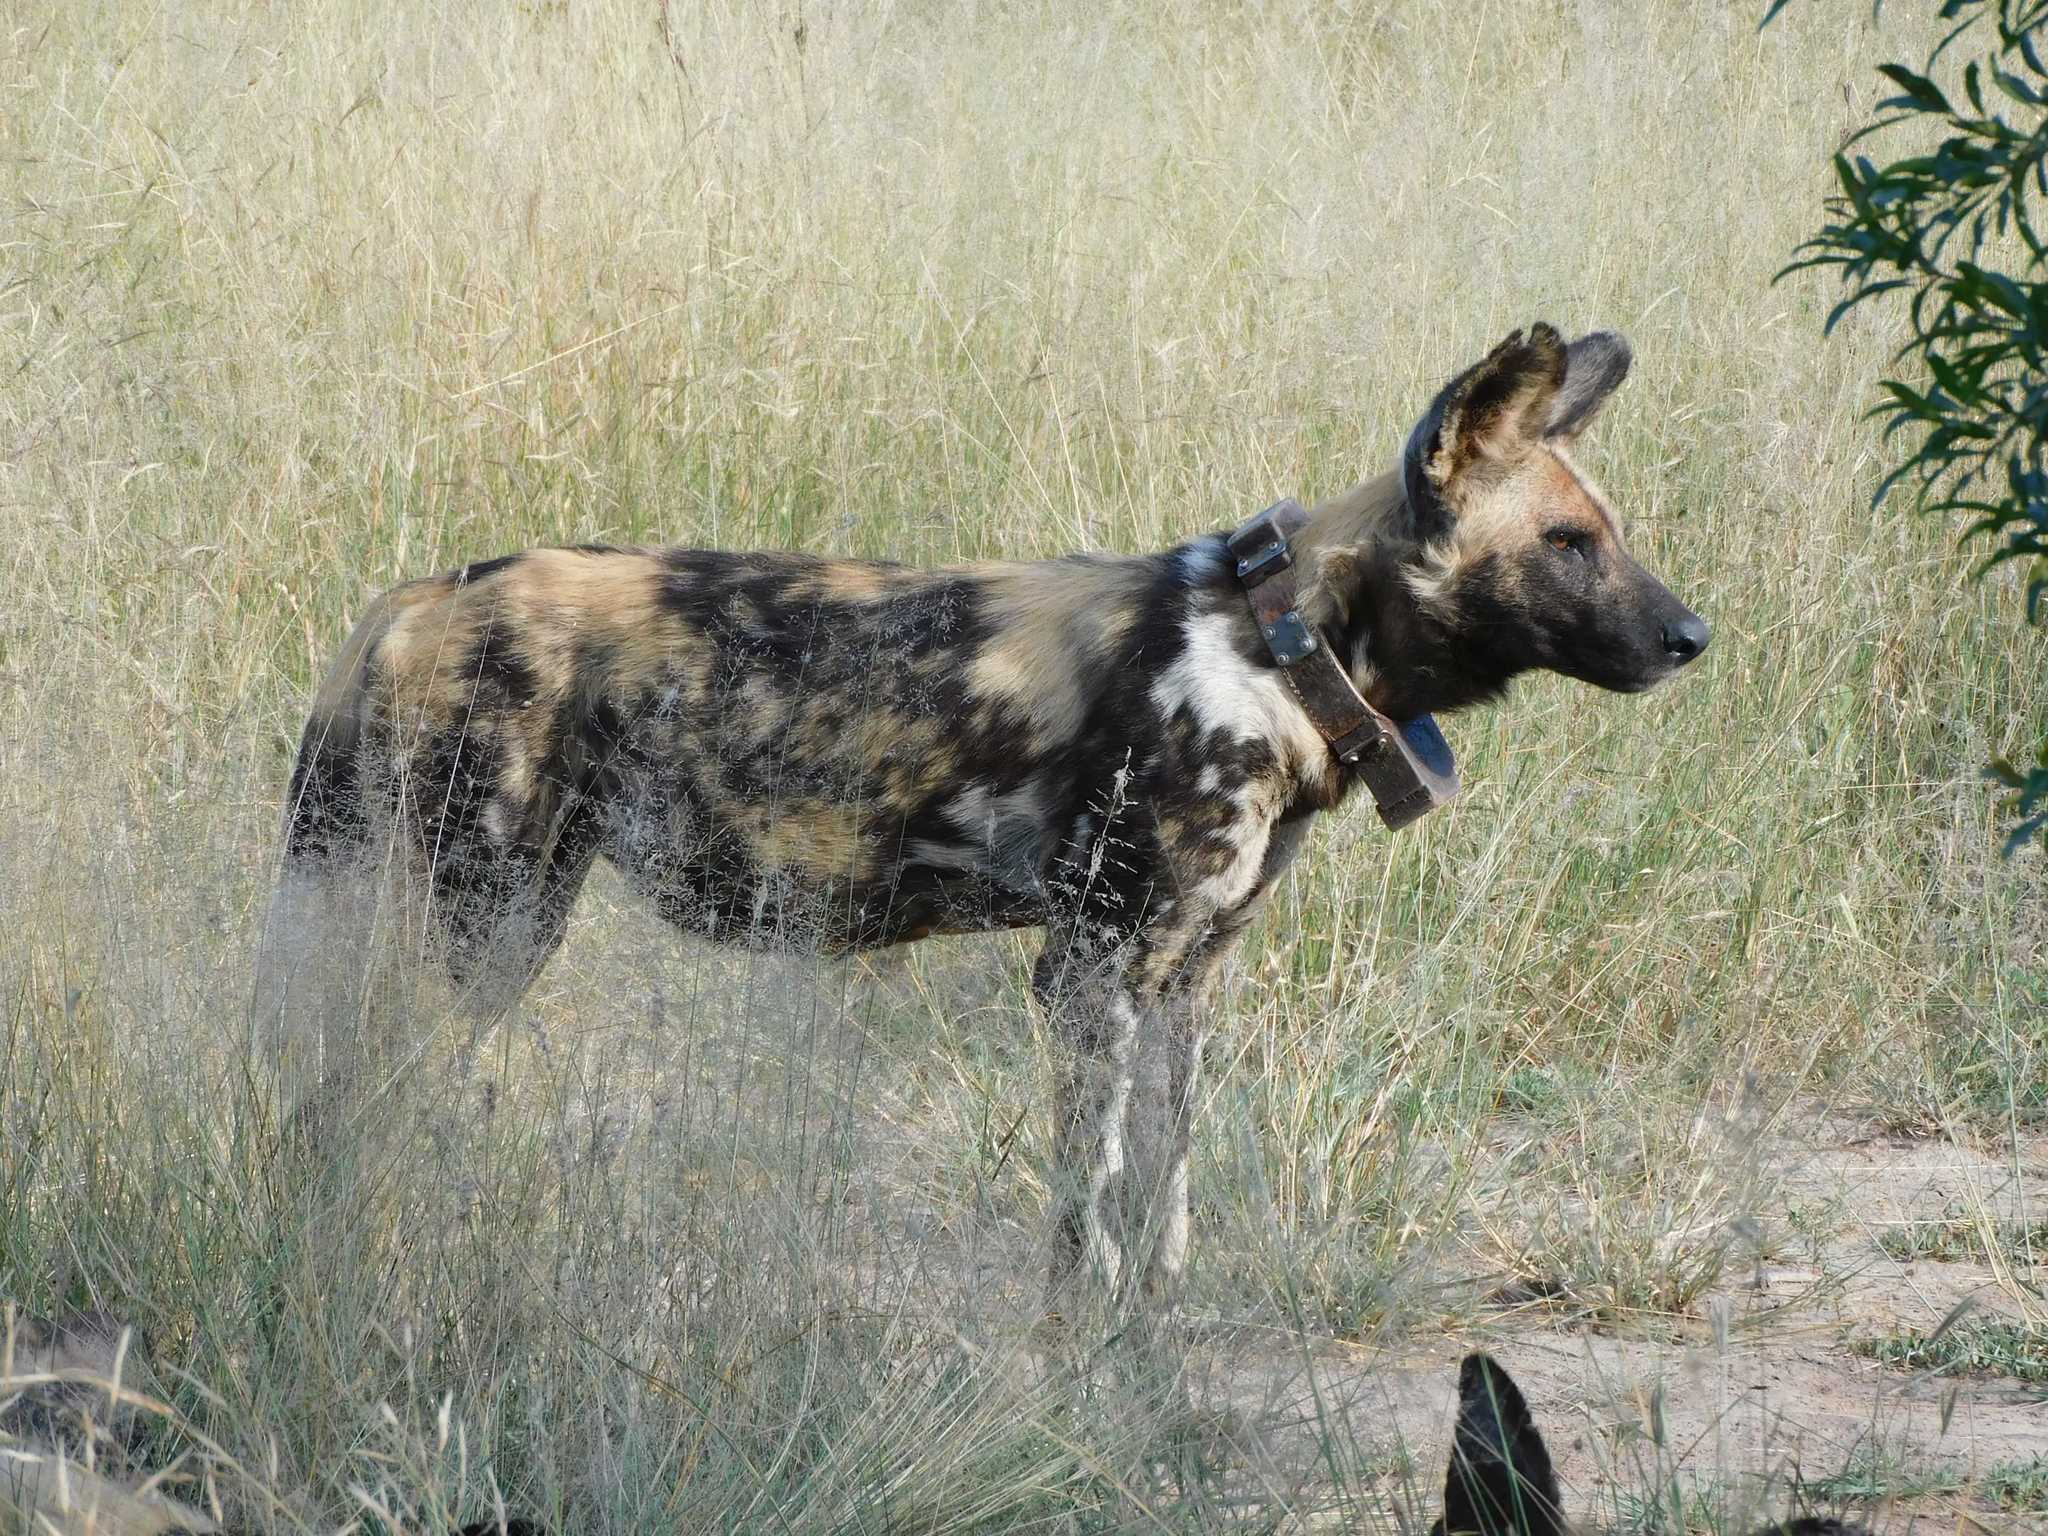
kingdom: Animalia
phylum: Chordata
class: Mammalia
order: Carnivora
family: Canidae
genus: Lycaon
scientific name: Lycaon pictus
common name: African wild dog
